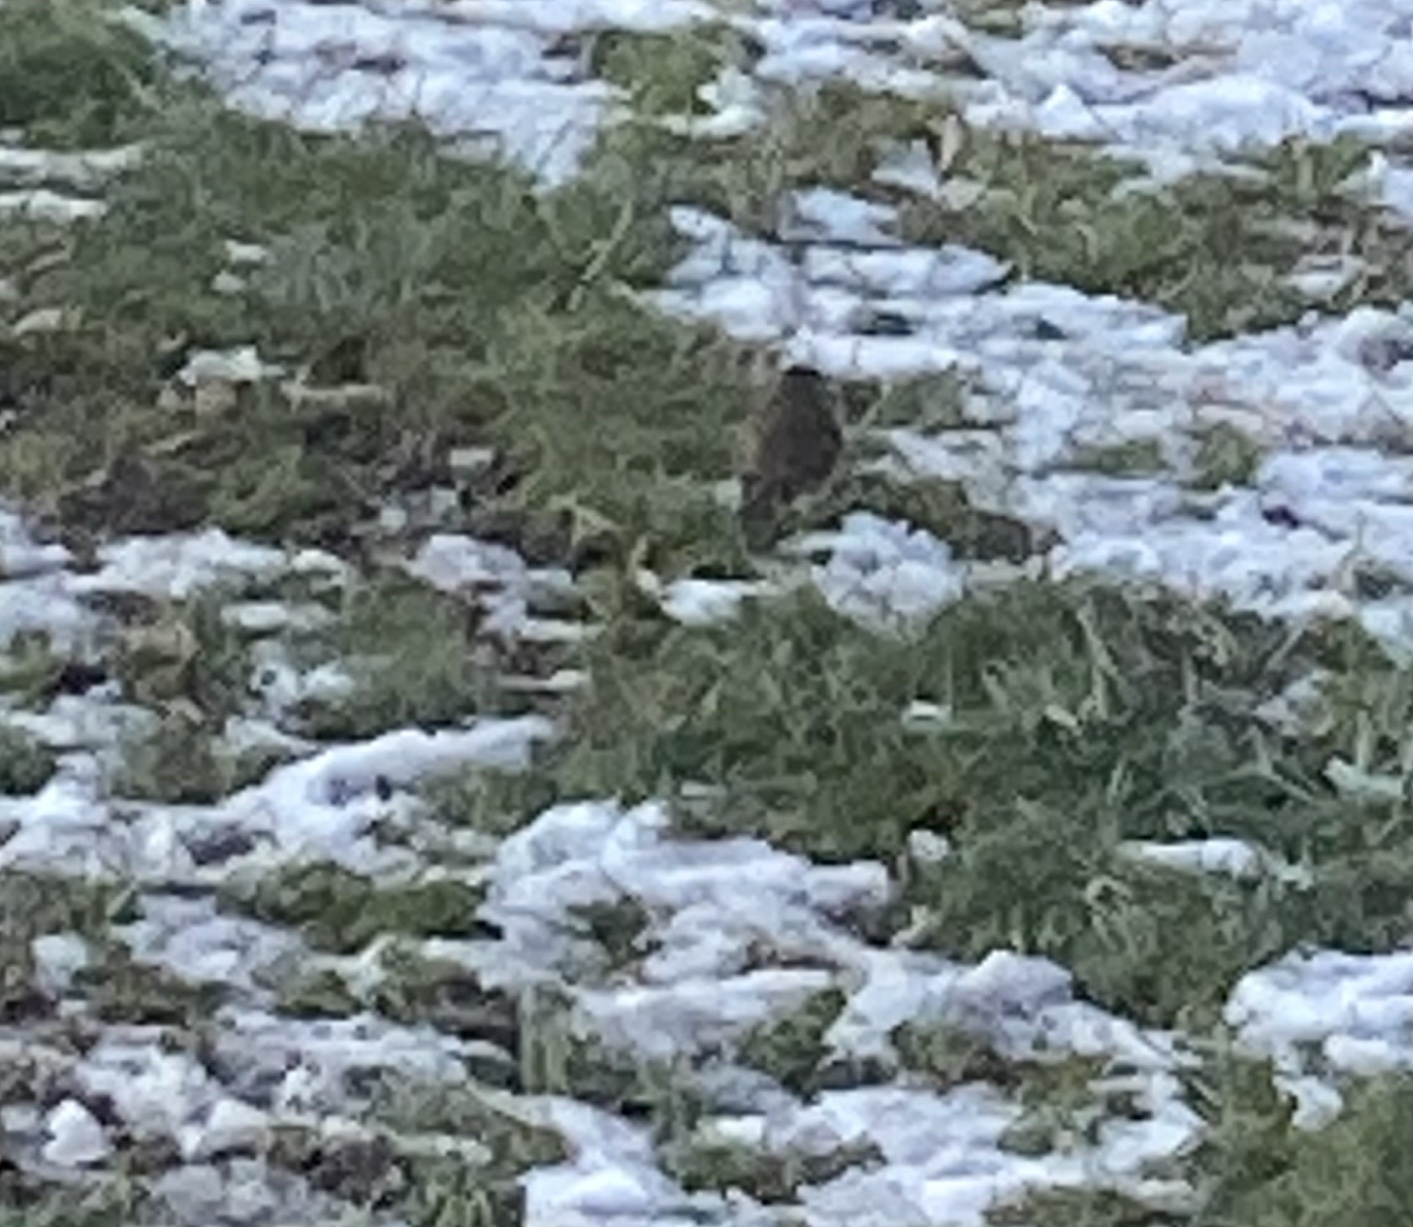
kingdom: Animalia
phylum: Chordata
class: Aves
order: Passeriformes
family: Muscicapidae
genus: Erithacus
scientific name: Erithacus rubecula
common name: European robin
